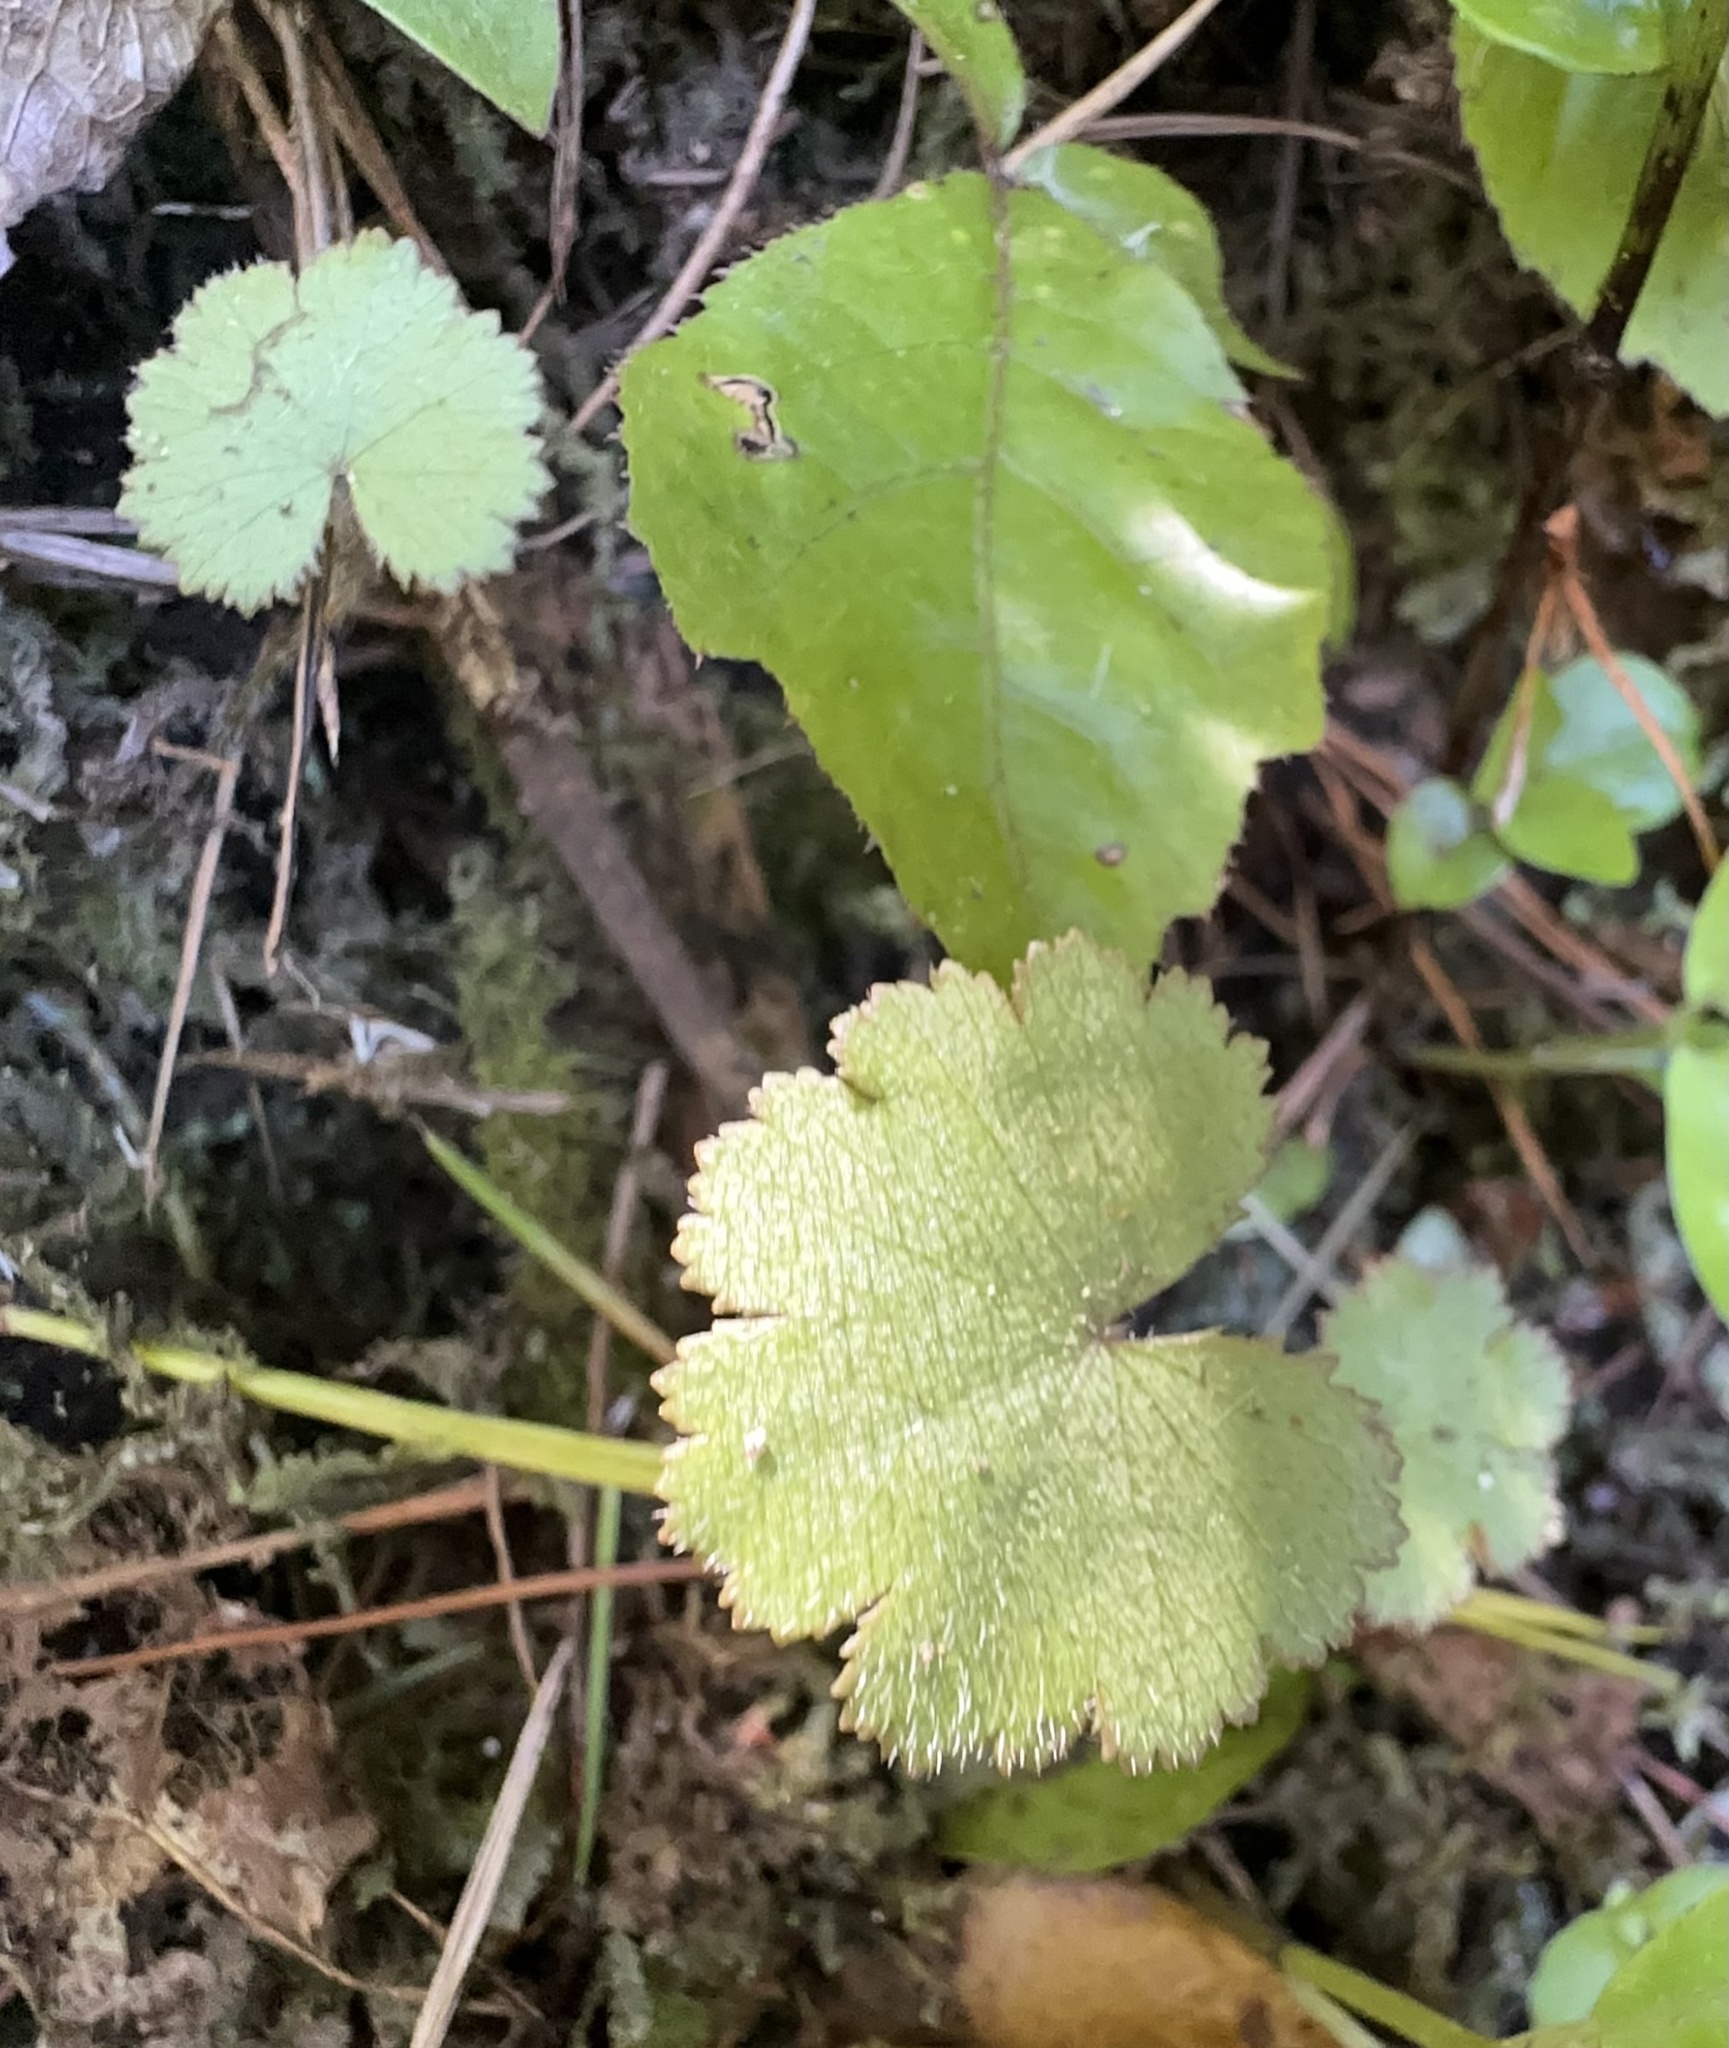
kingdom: Plantae
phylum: Tracheophyta
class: Magnoliopsida
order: Apiales
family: Araliaceae
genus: Hydrocotyle
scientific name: Hydrocotyle moschata
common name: Hairy pennywort
